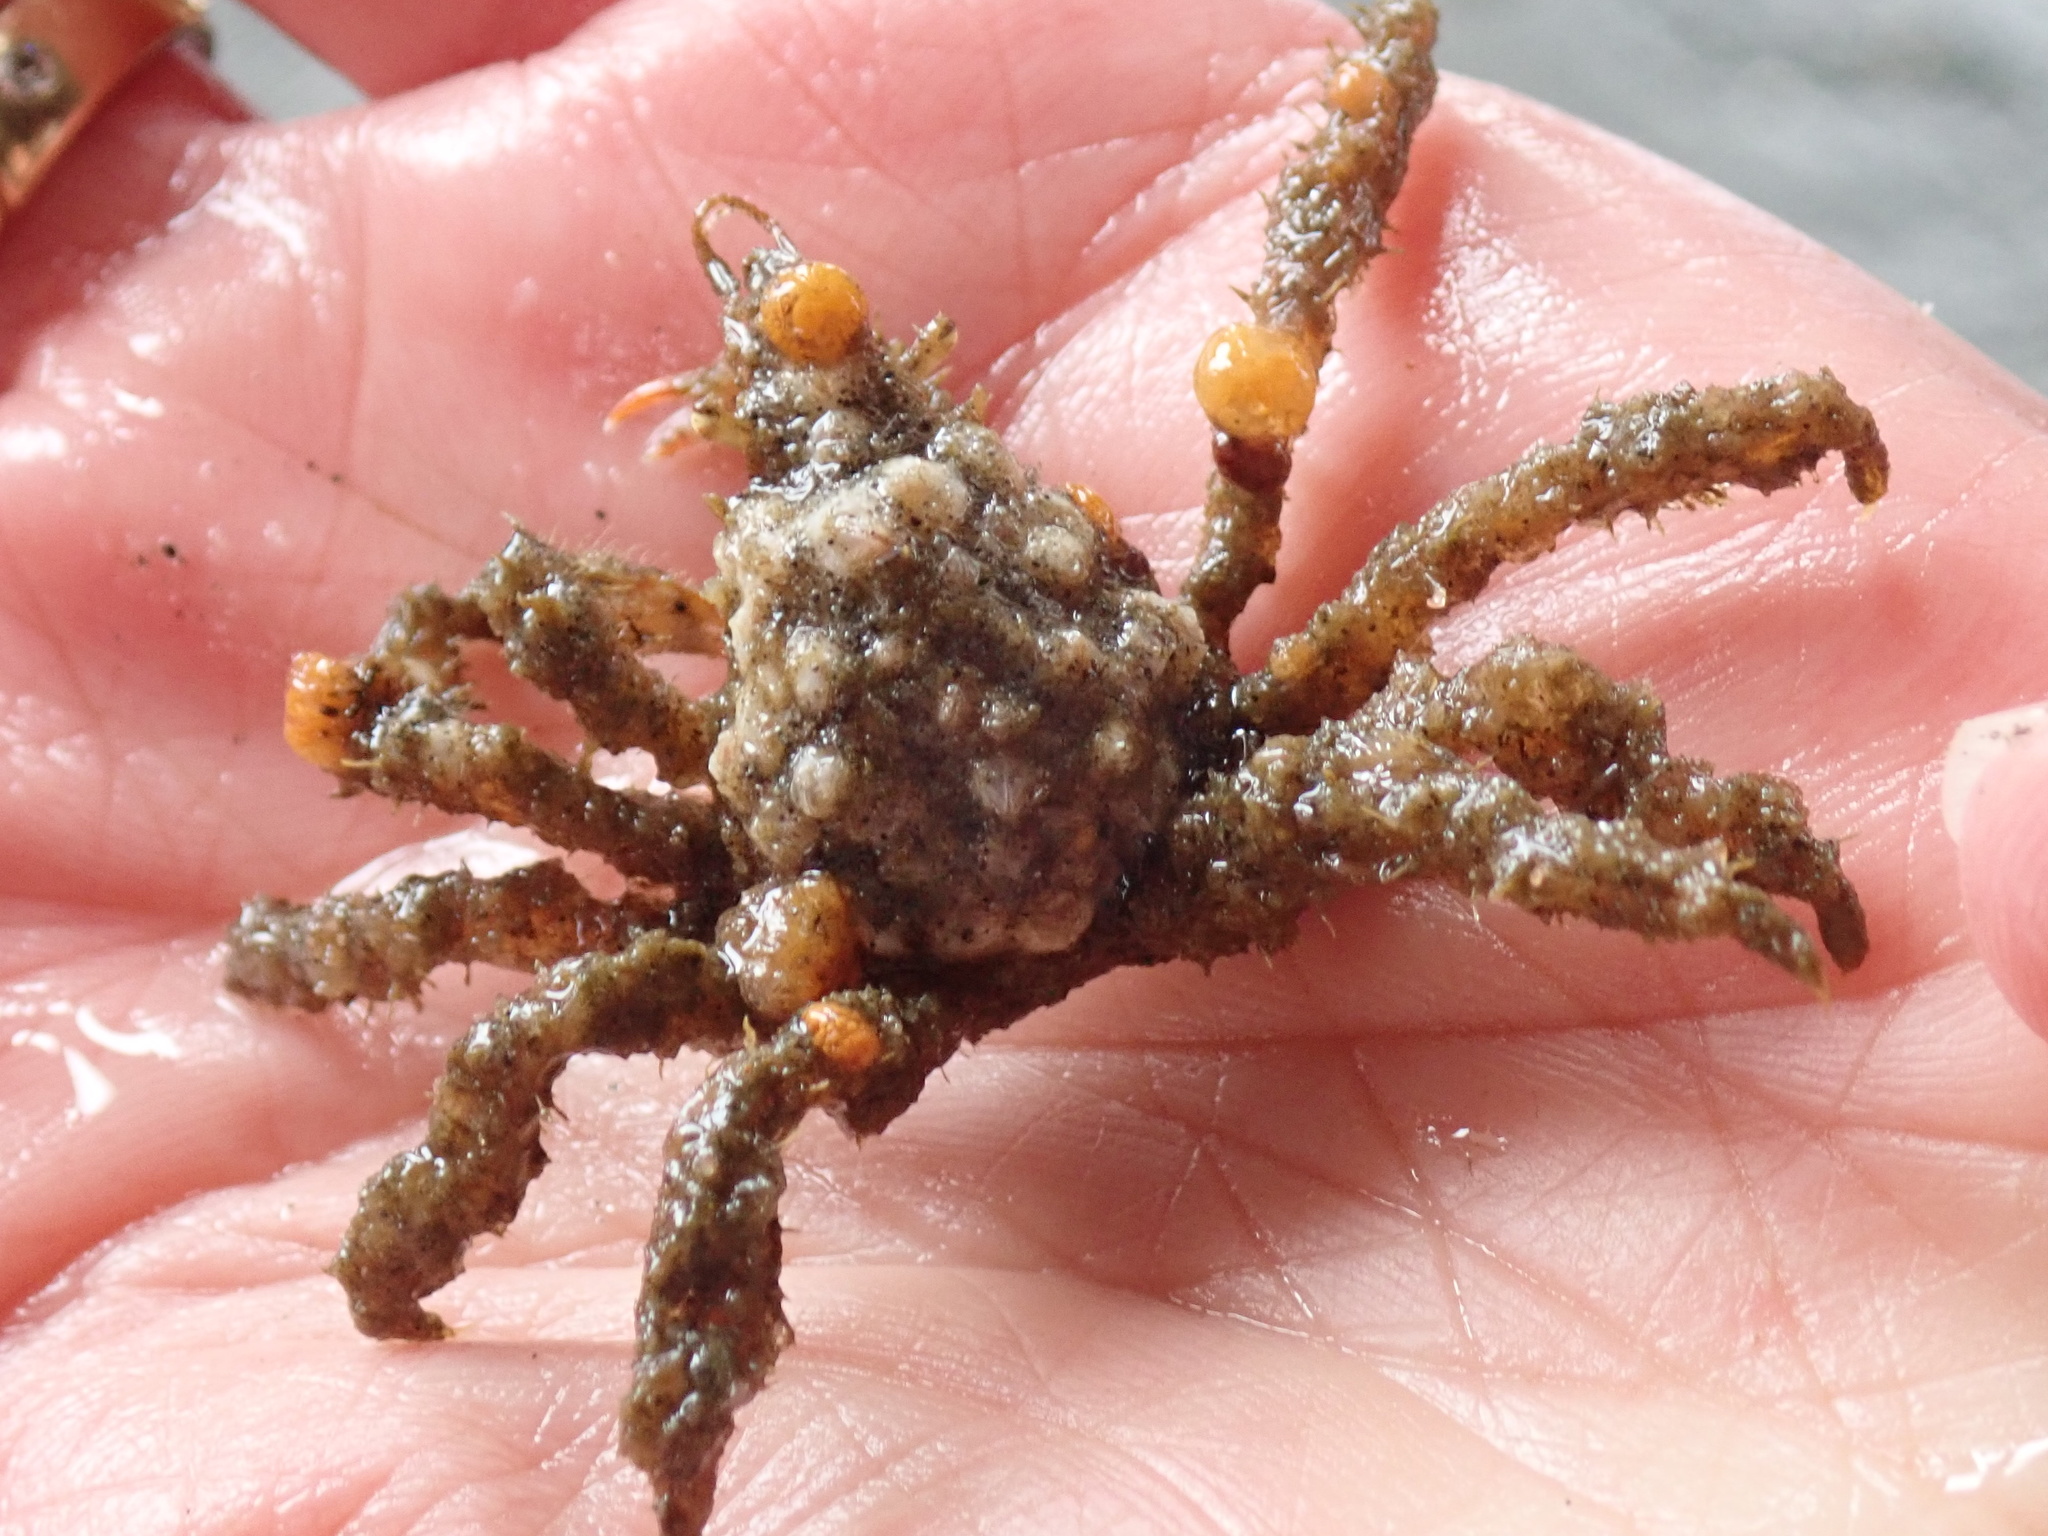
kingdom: Animalia
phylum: Arthropoda
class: Malacostraca
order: Decapoda
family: Oregoniidae
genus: Oregonia
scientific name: Oregonia gracilis
